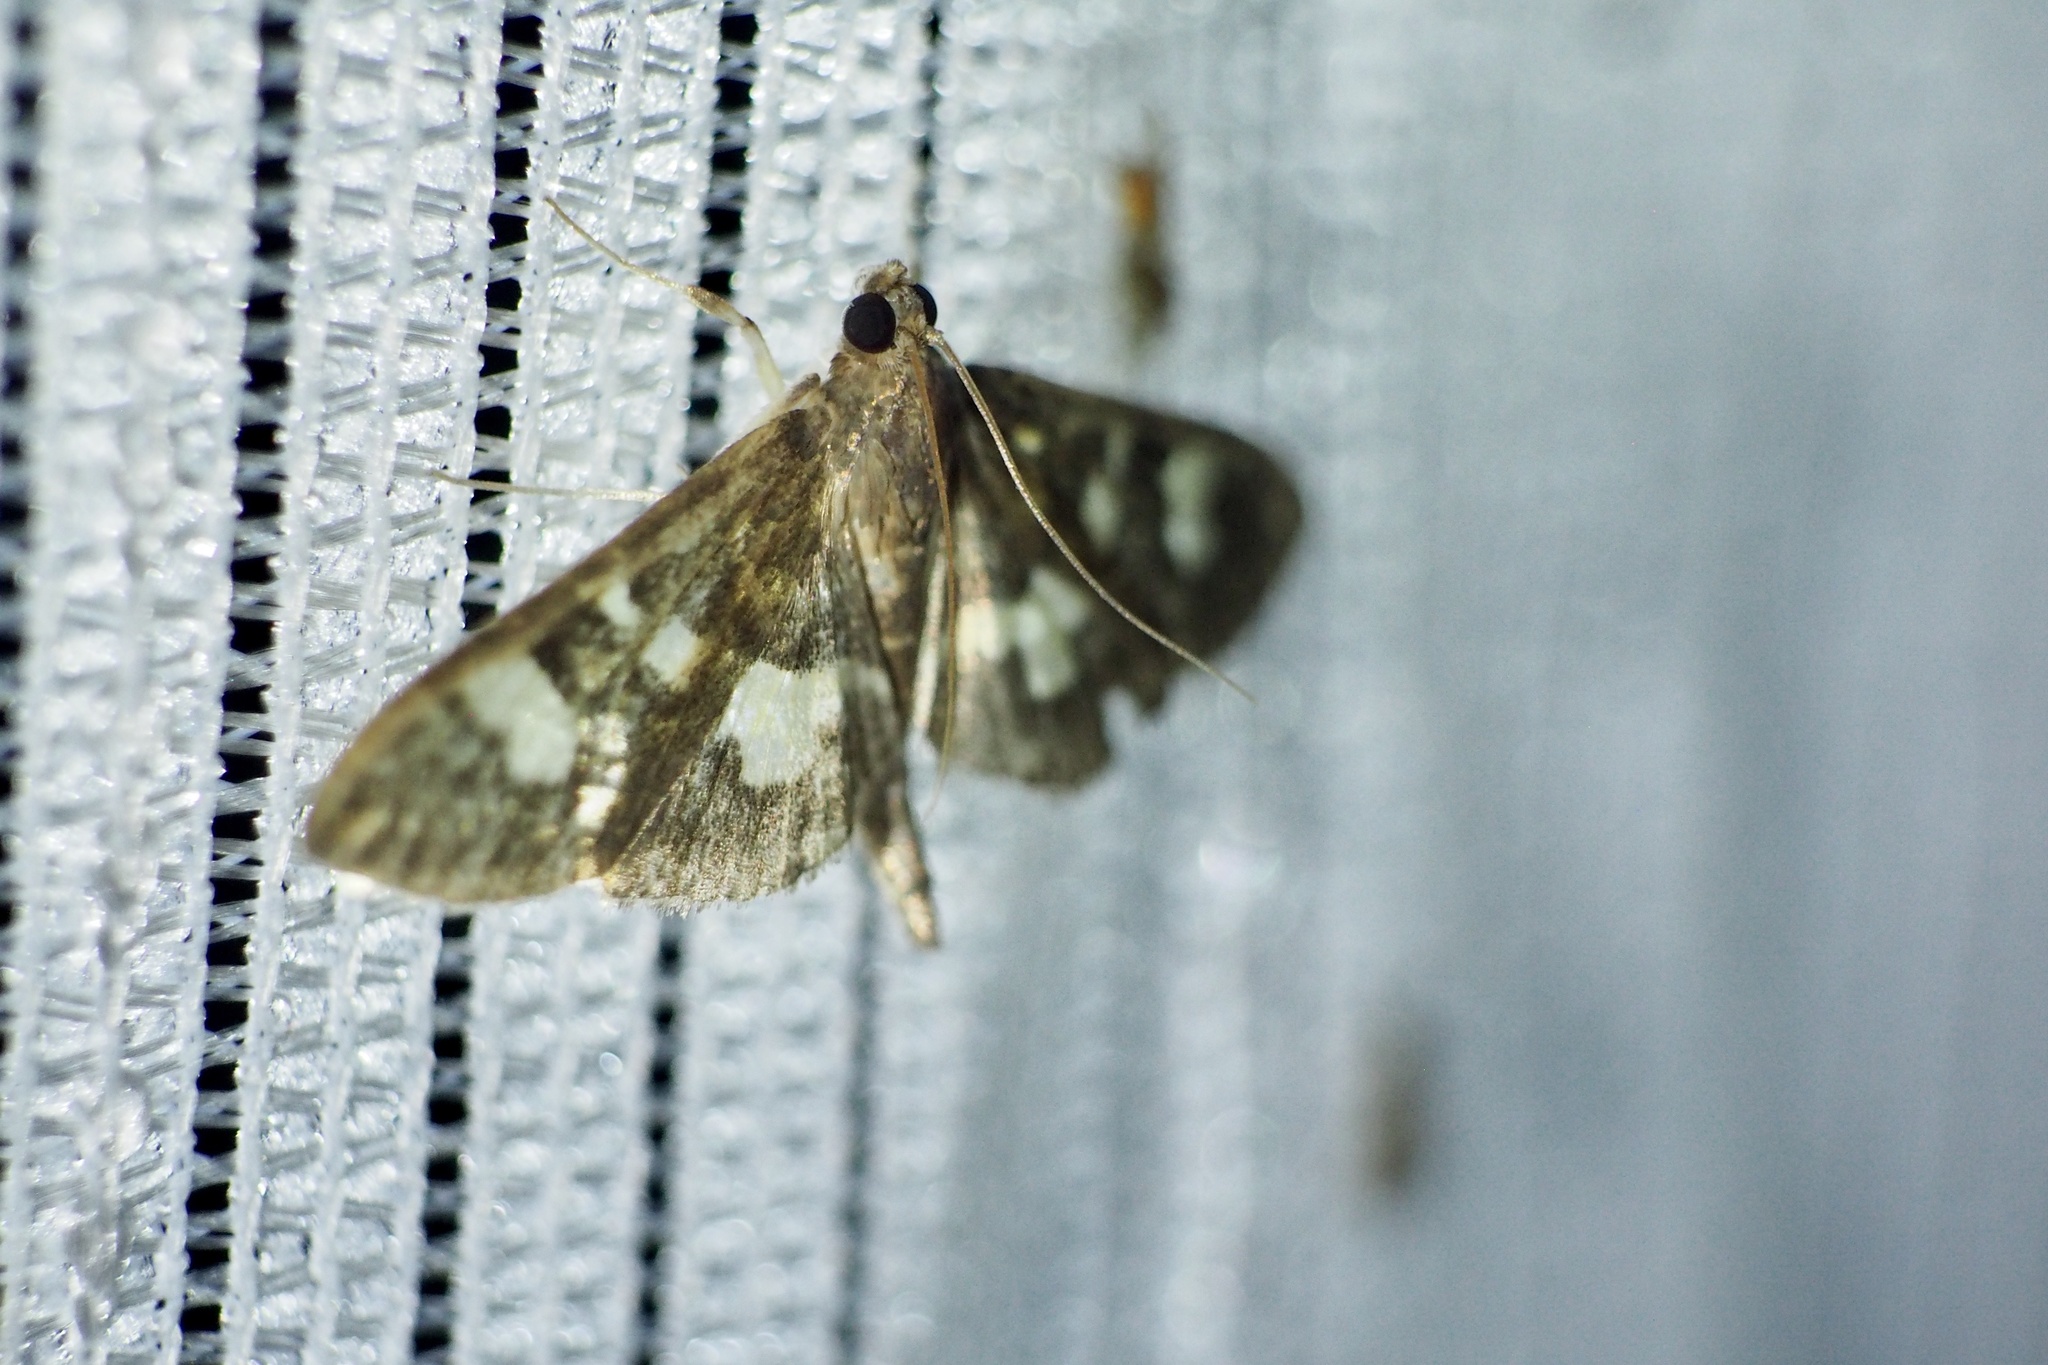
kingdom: Animalia
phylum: Arthropoda
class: Insecta
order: Lepidoptera
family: Crambidae
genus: Uresiphita
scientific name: Uresiphita tricolor
